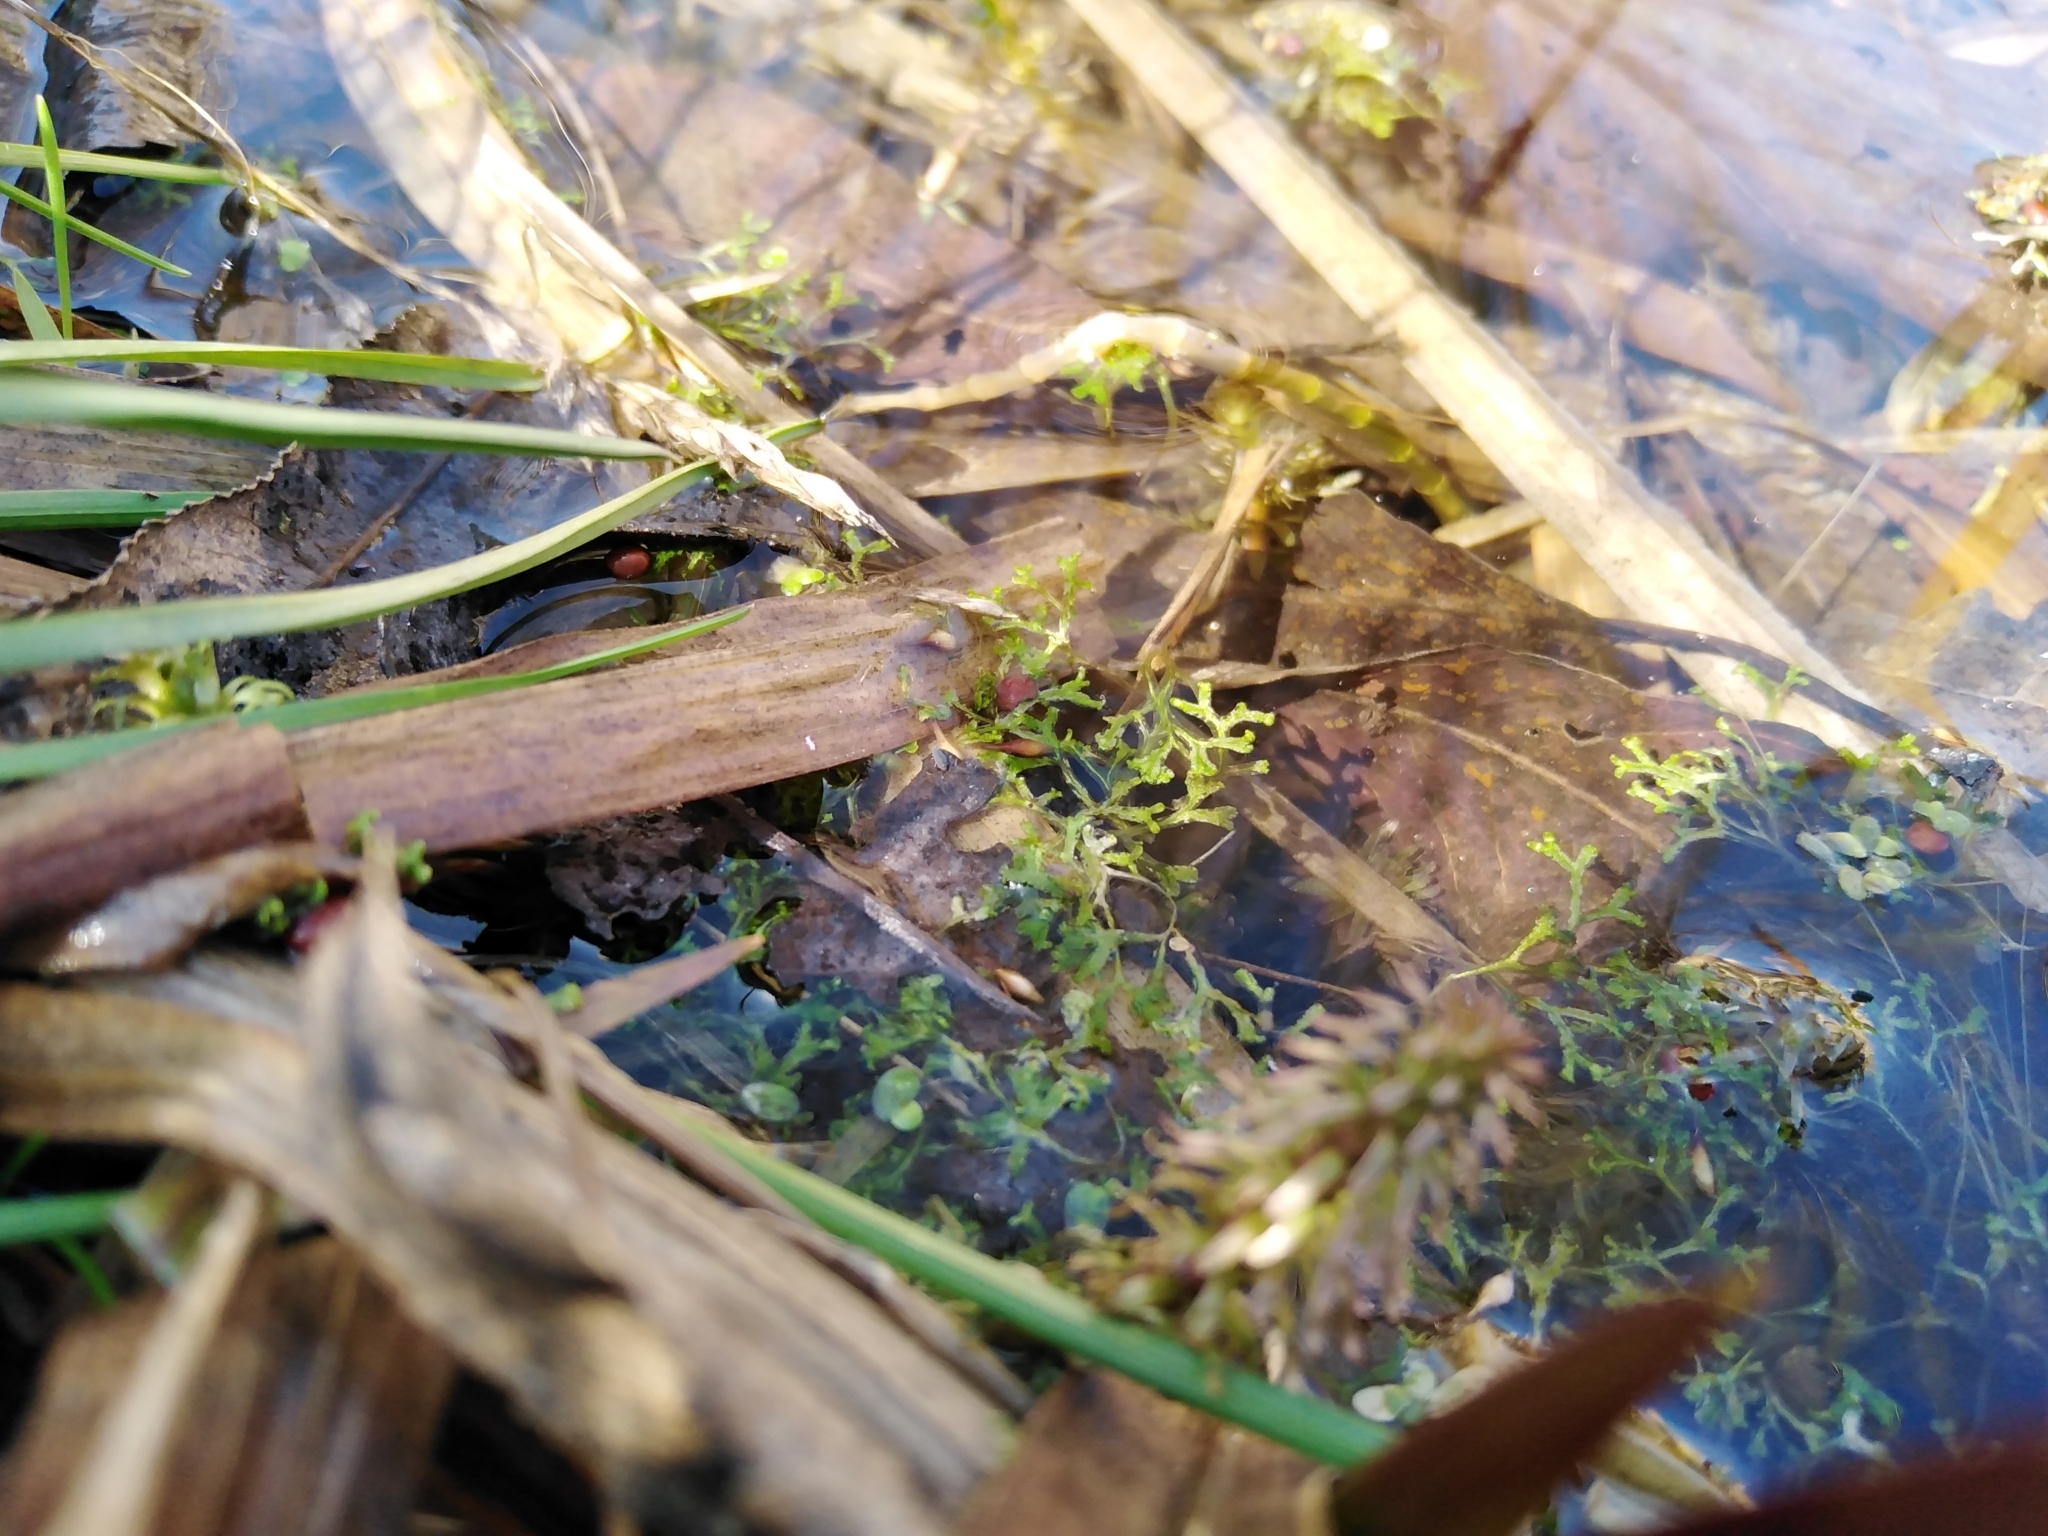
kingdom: Plantae
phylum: Marchantiophyta
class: Marchantiopsida
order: Marchantiales
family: Ricciaceae
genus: Riccia
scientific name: Riccia fluitans
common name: Floating crystalwort
